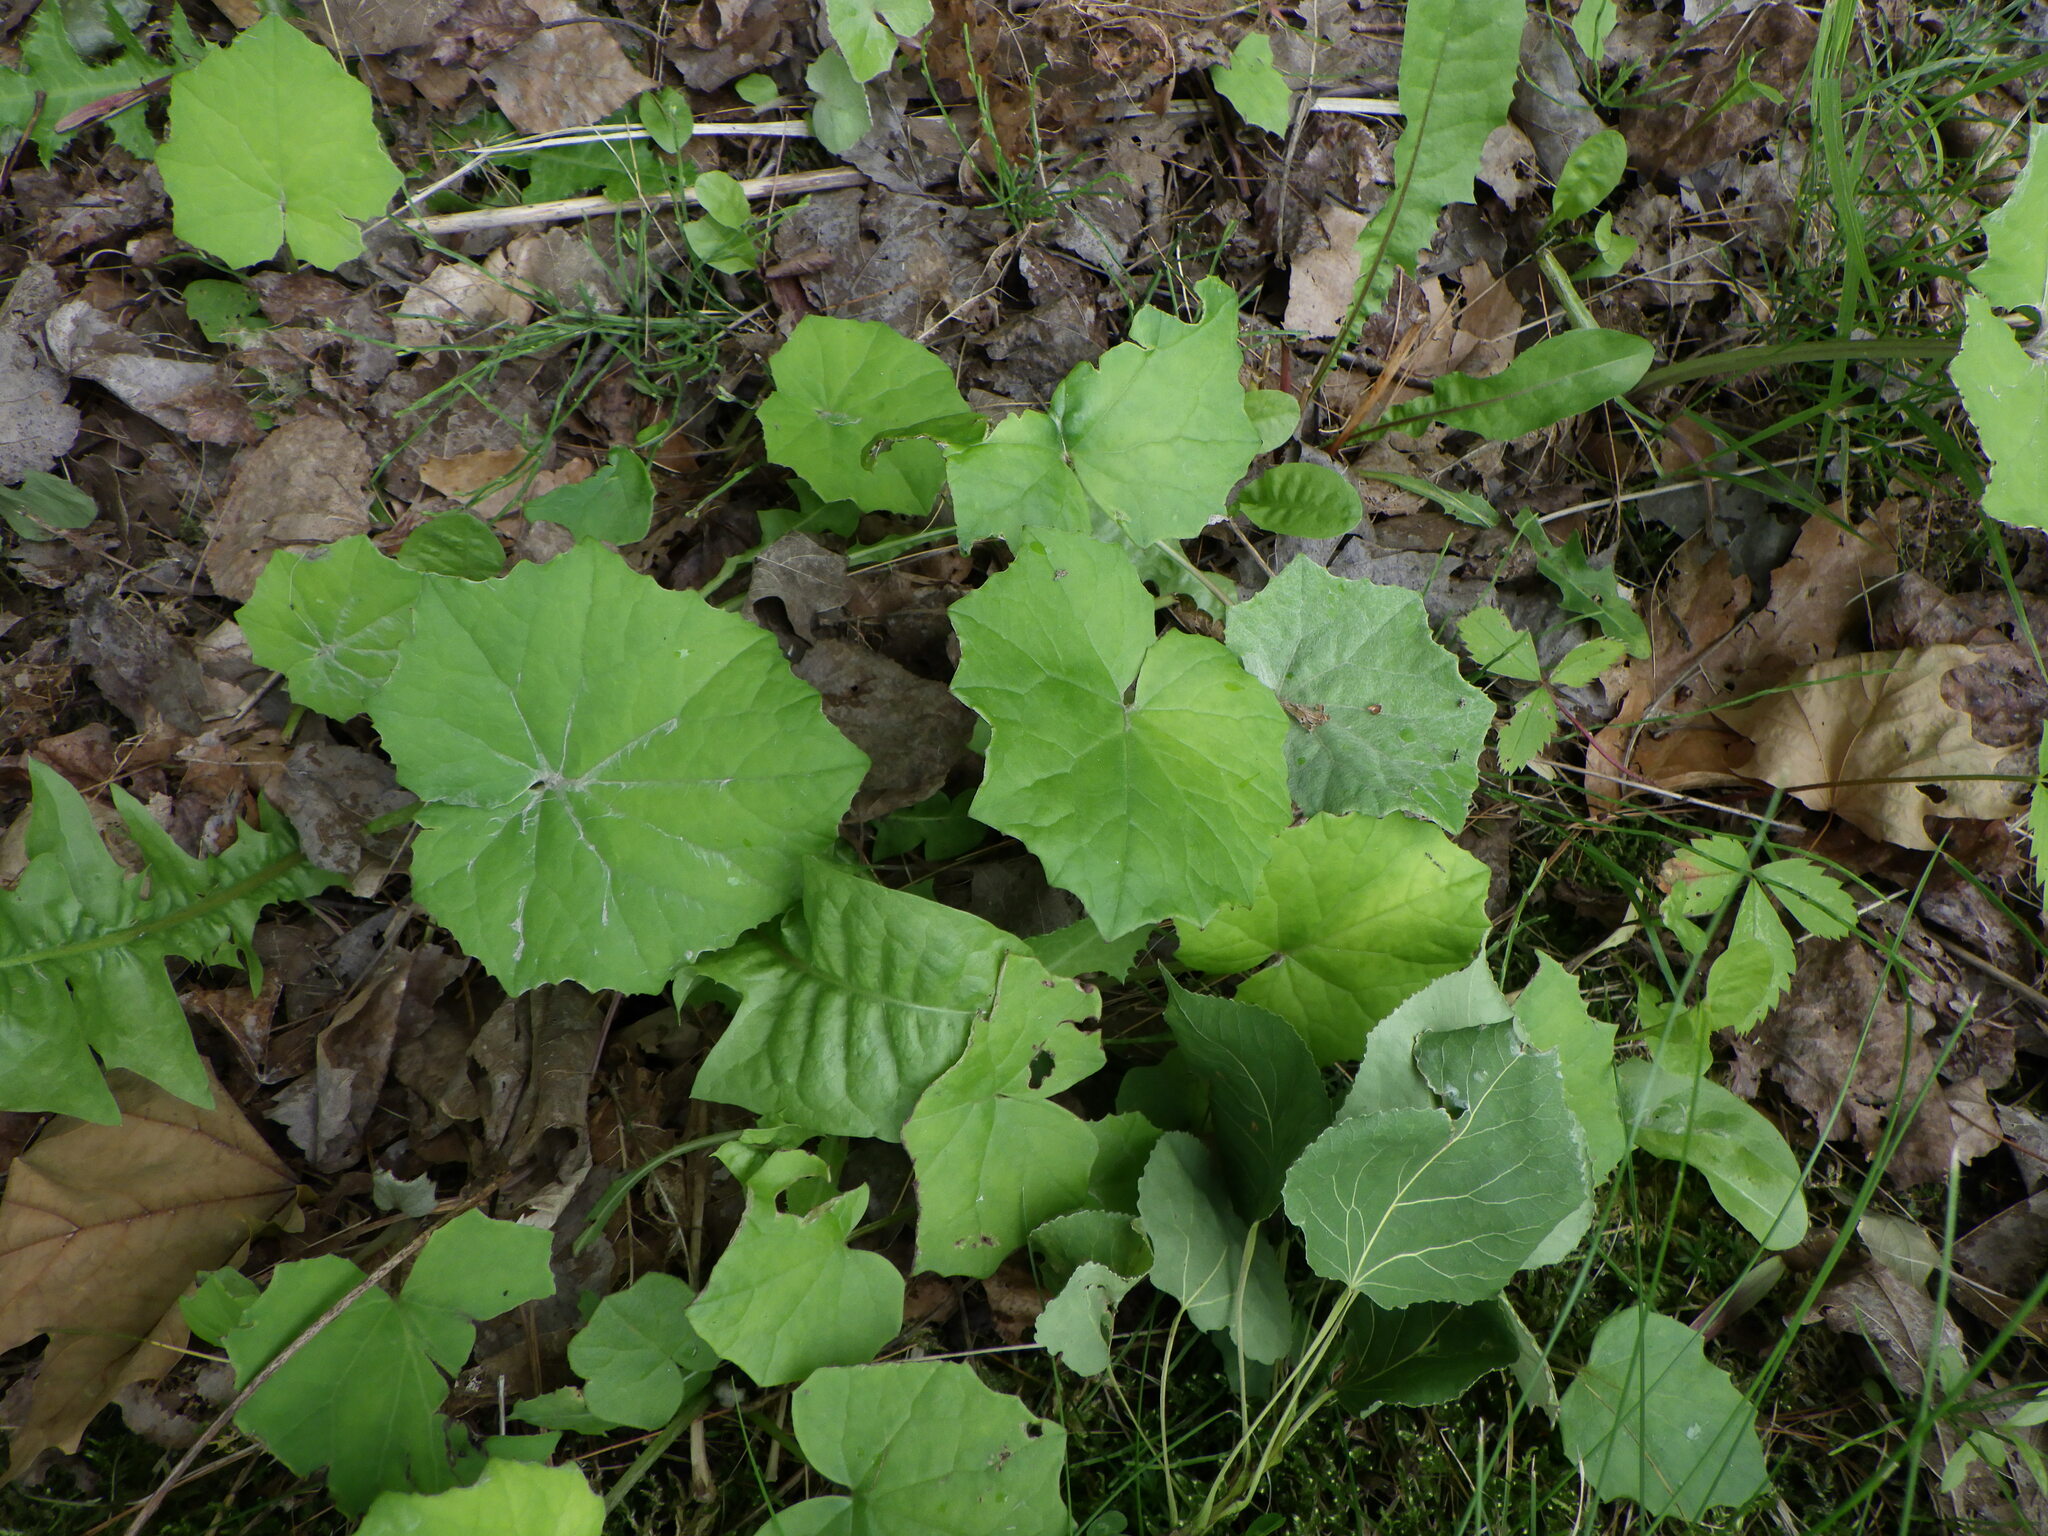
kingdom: Plantae
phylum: Tracheophyta
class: Magnoliopsida
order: Asterales
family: Asteraceae
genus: Tussilago
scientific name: Tussilago farfara
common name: Coltsfoot
